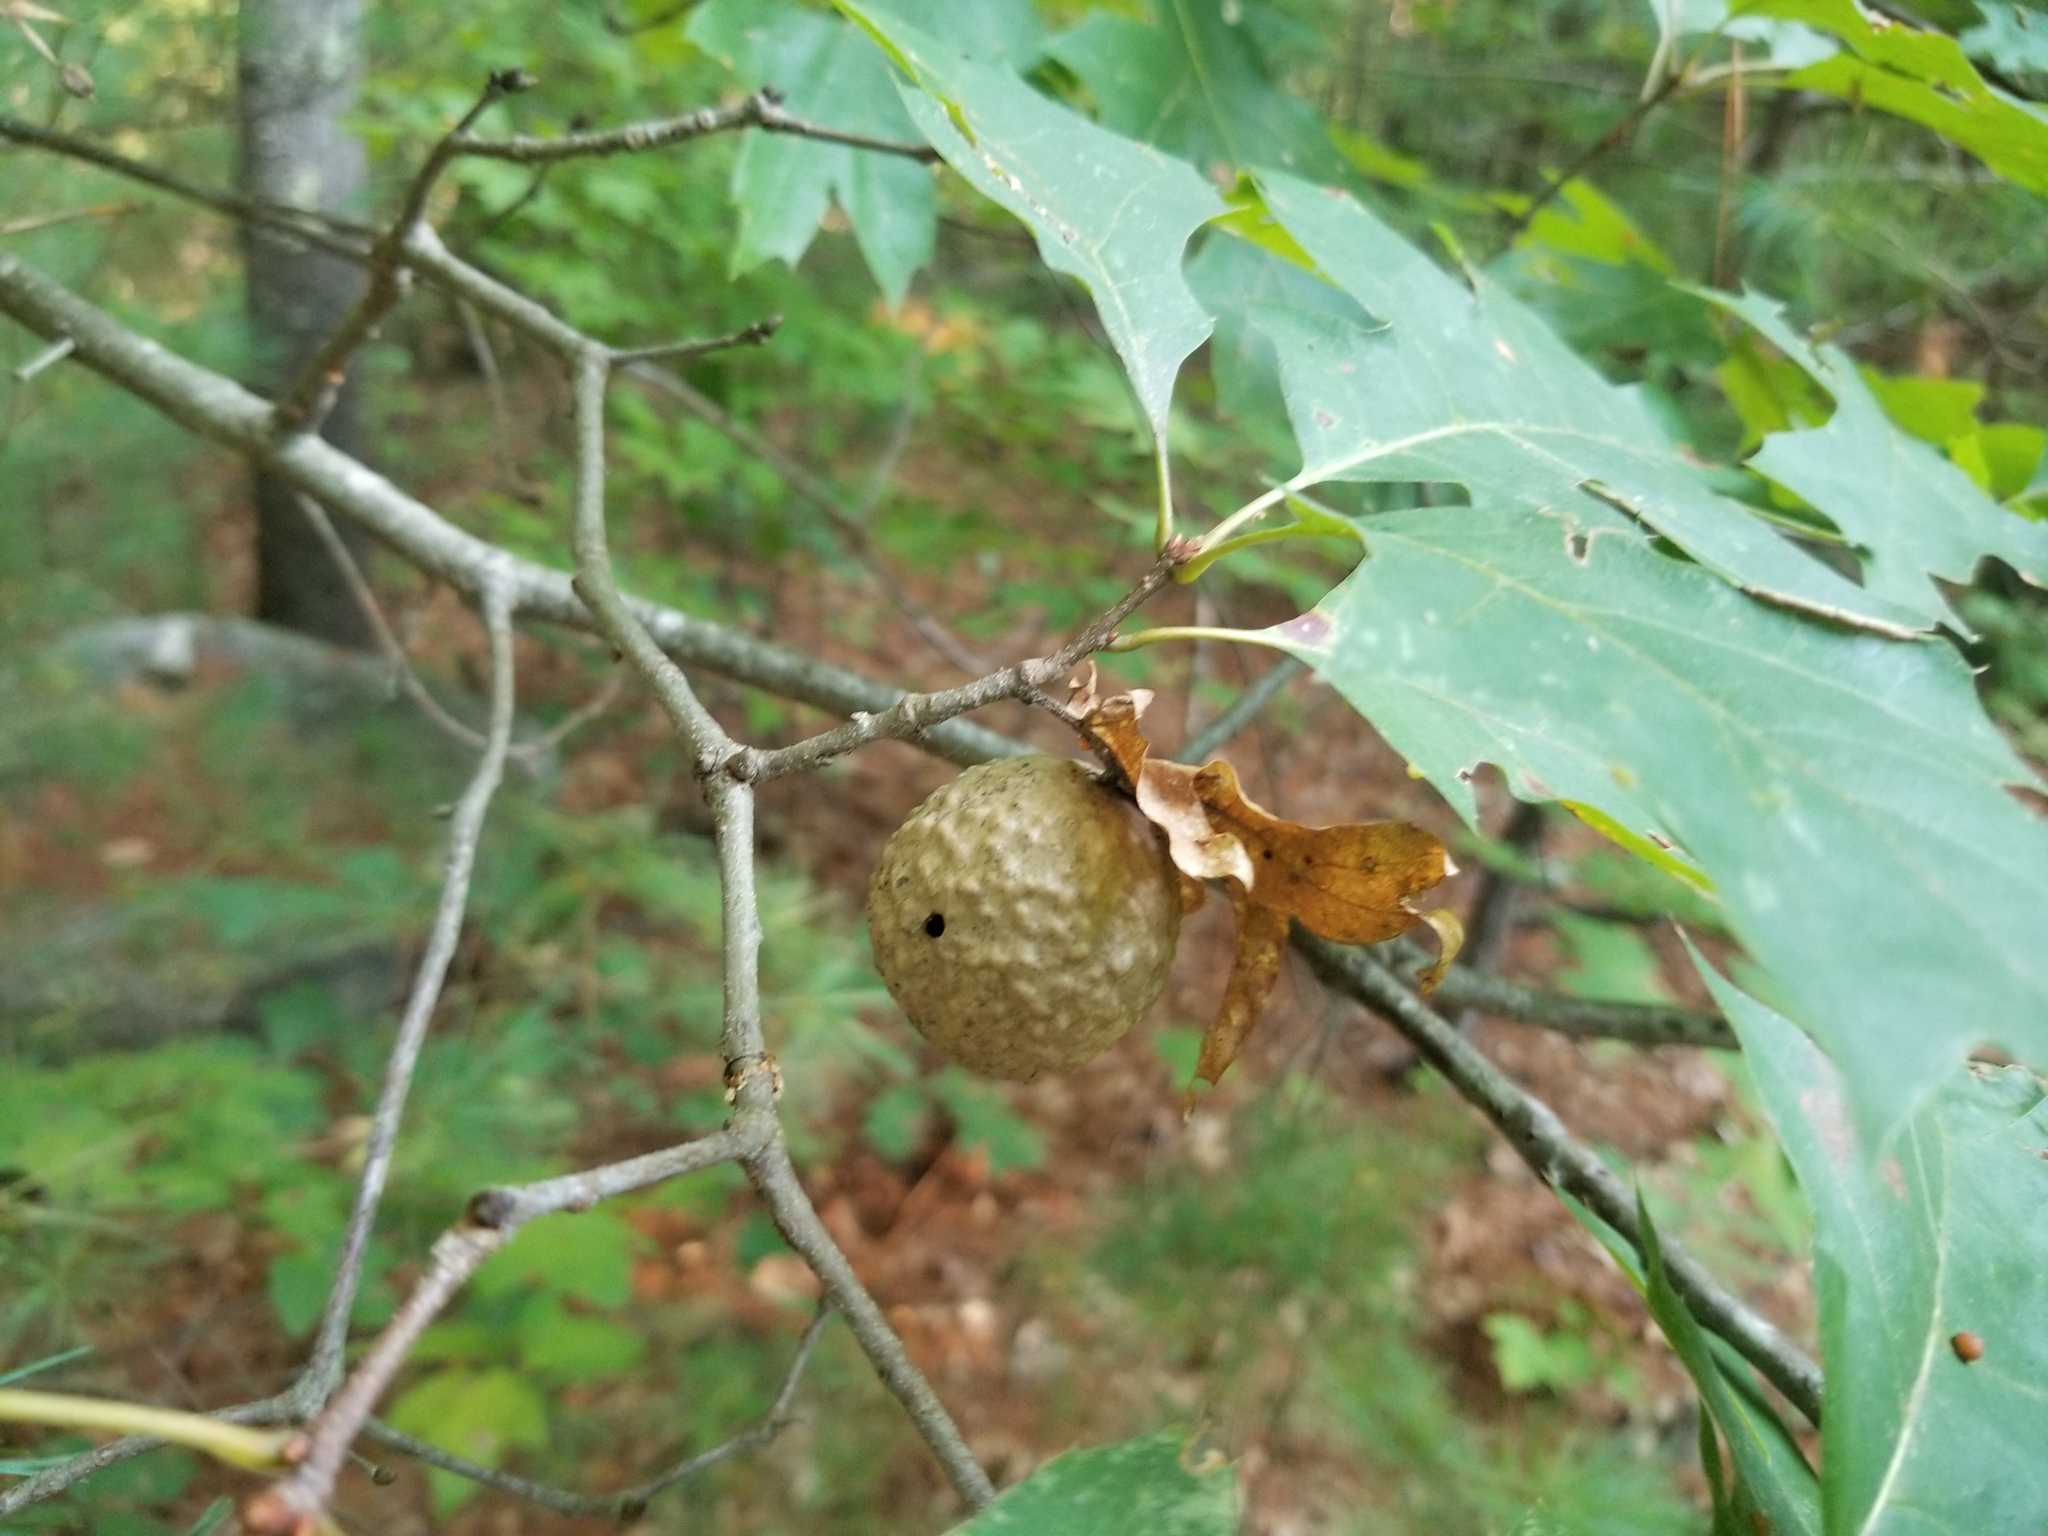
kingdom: Animalia
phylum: Arthropoda
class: Insecta
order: Hymenoptera
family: Cynipidae
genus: Amphibolips
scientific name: Amphibolips
